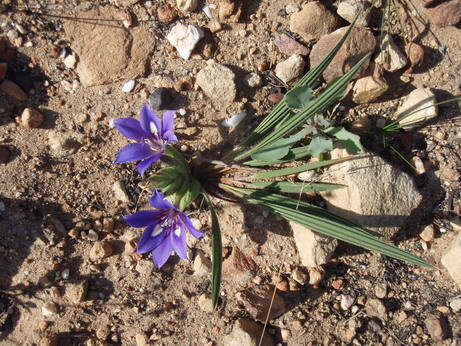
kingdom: Plantae
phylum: Tracheophyta
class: Liliopsida
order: Asparagales
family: Iridaceae
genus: Babiana
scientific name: Babiana sambucina
